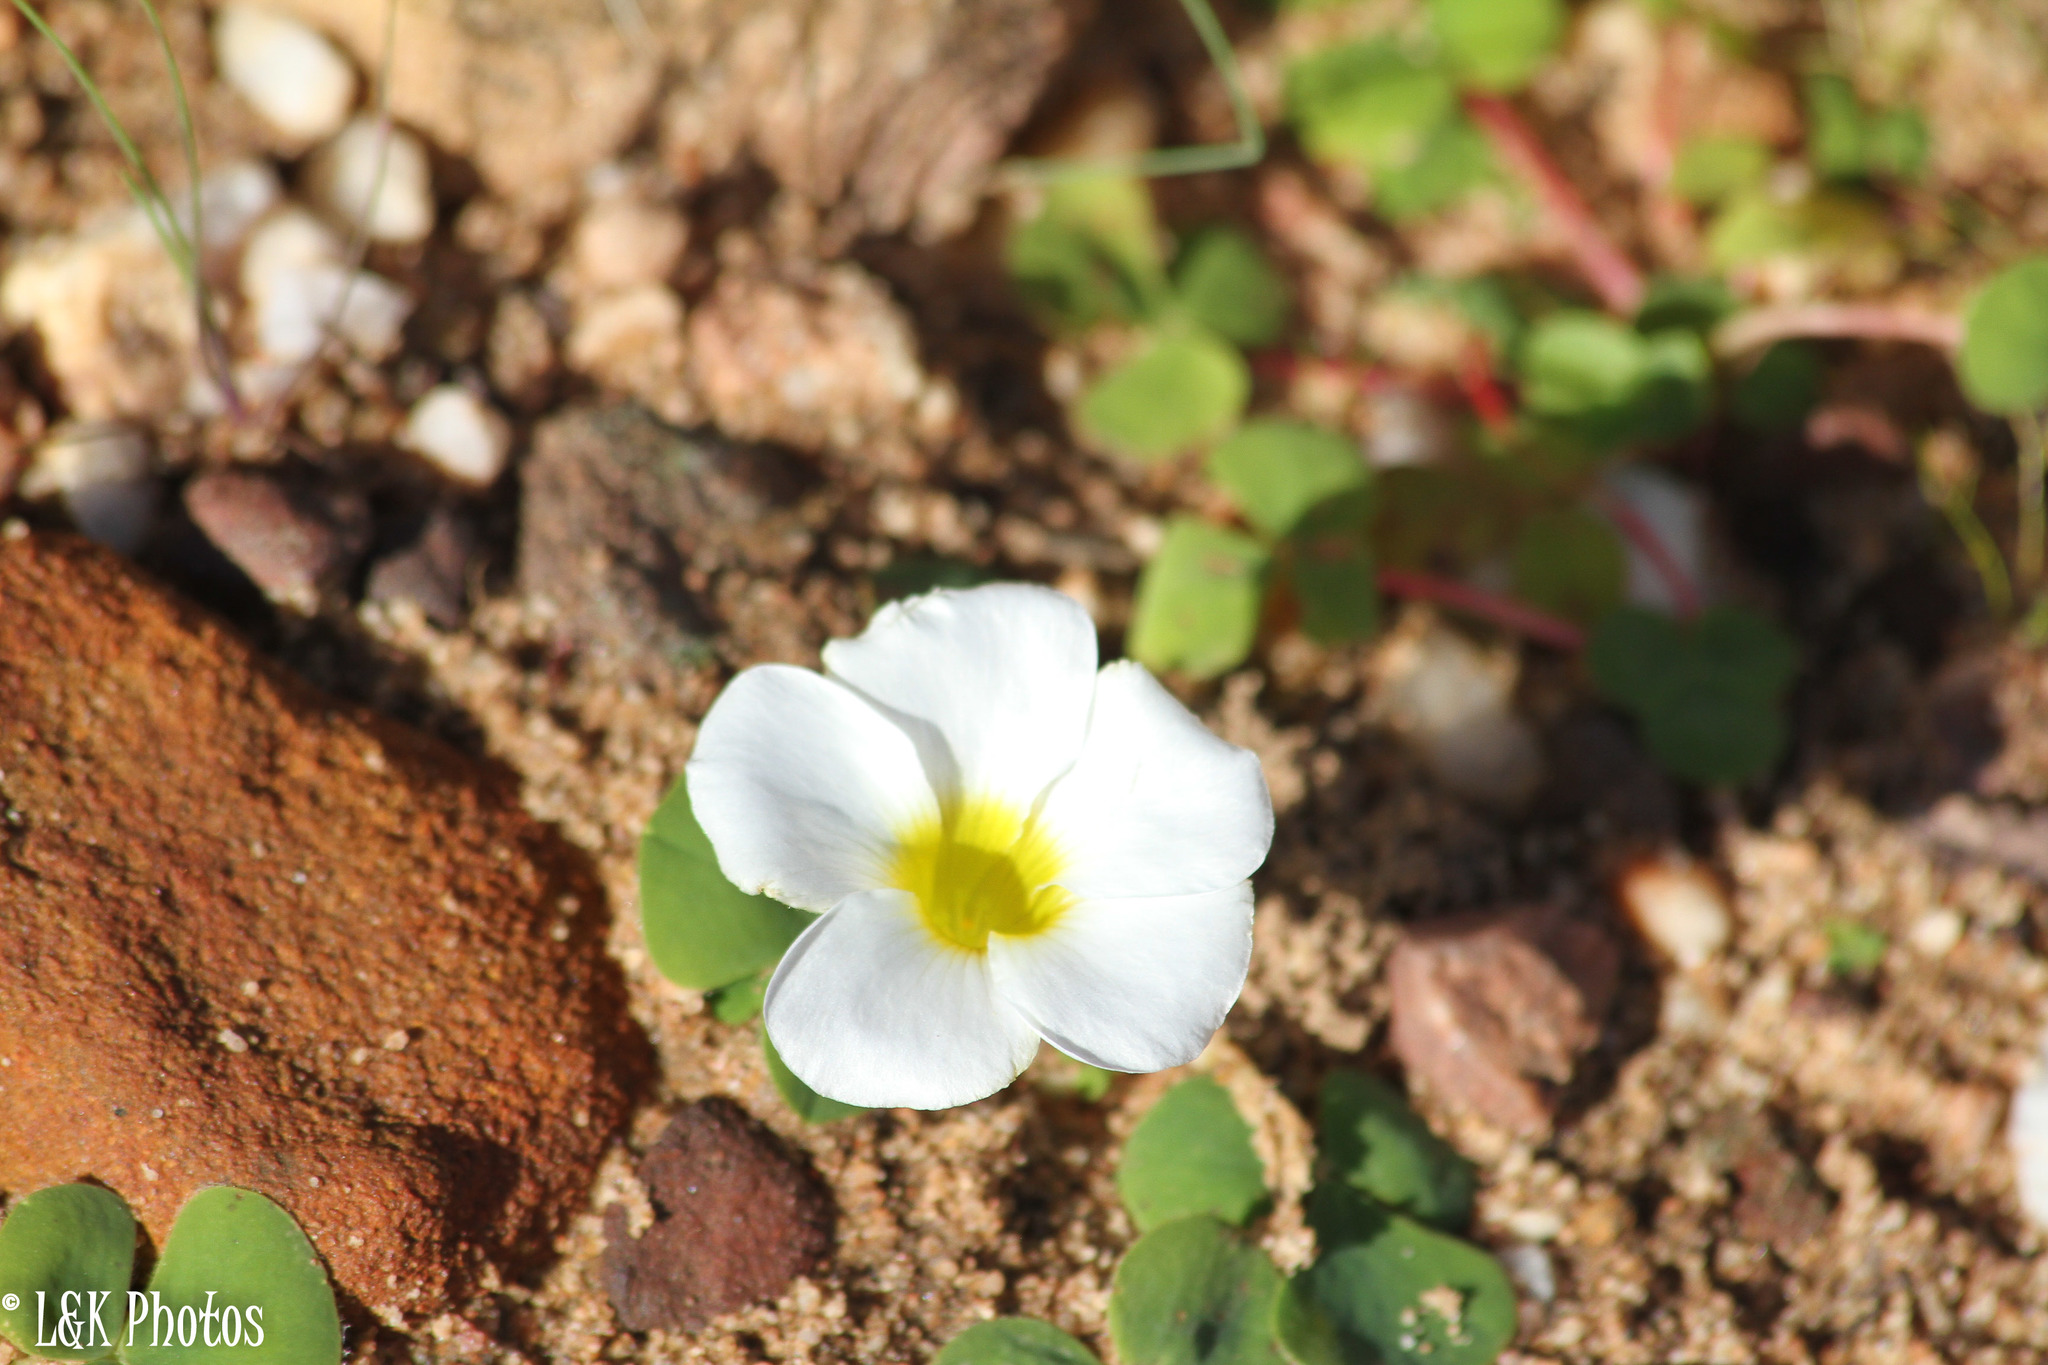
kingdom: Plantae
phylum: Tracheophyta
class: Magnoliopsida
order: Oxalidales
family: Oxalidaceae
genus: Oxalis
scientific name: Oxalis purpurea
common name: Purple woodsorrel
